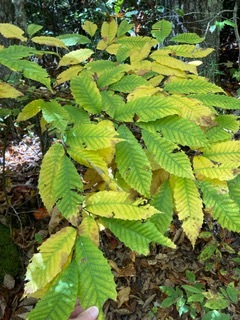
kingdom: Plantae
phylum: Tracheophyta
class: Magnoliopsida
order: Fagales
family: Fagaceae
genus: Castanea
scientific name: Castanea dentata
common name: American chestnut
